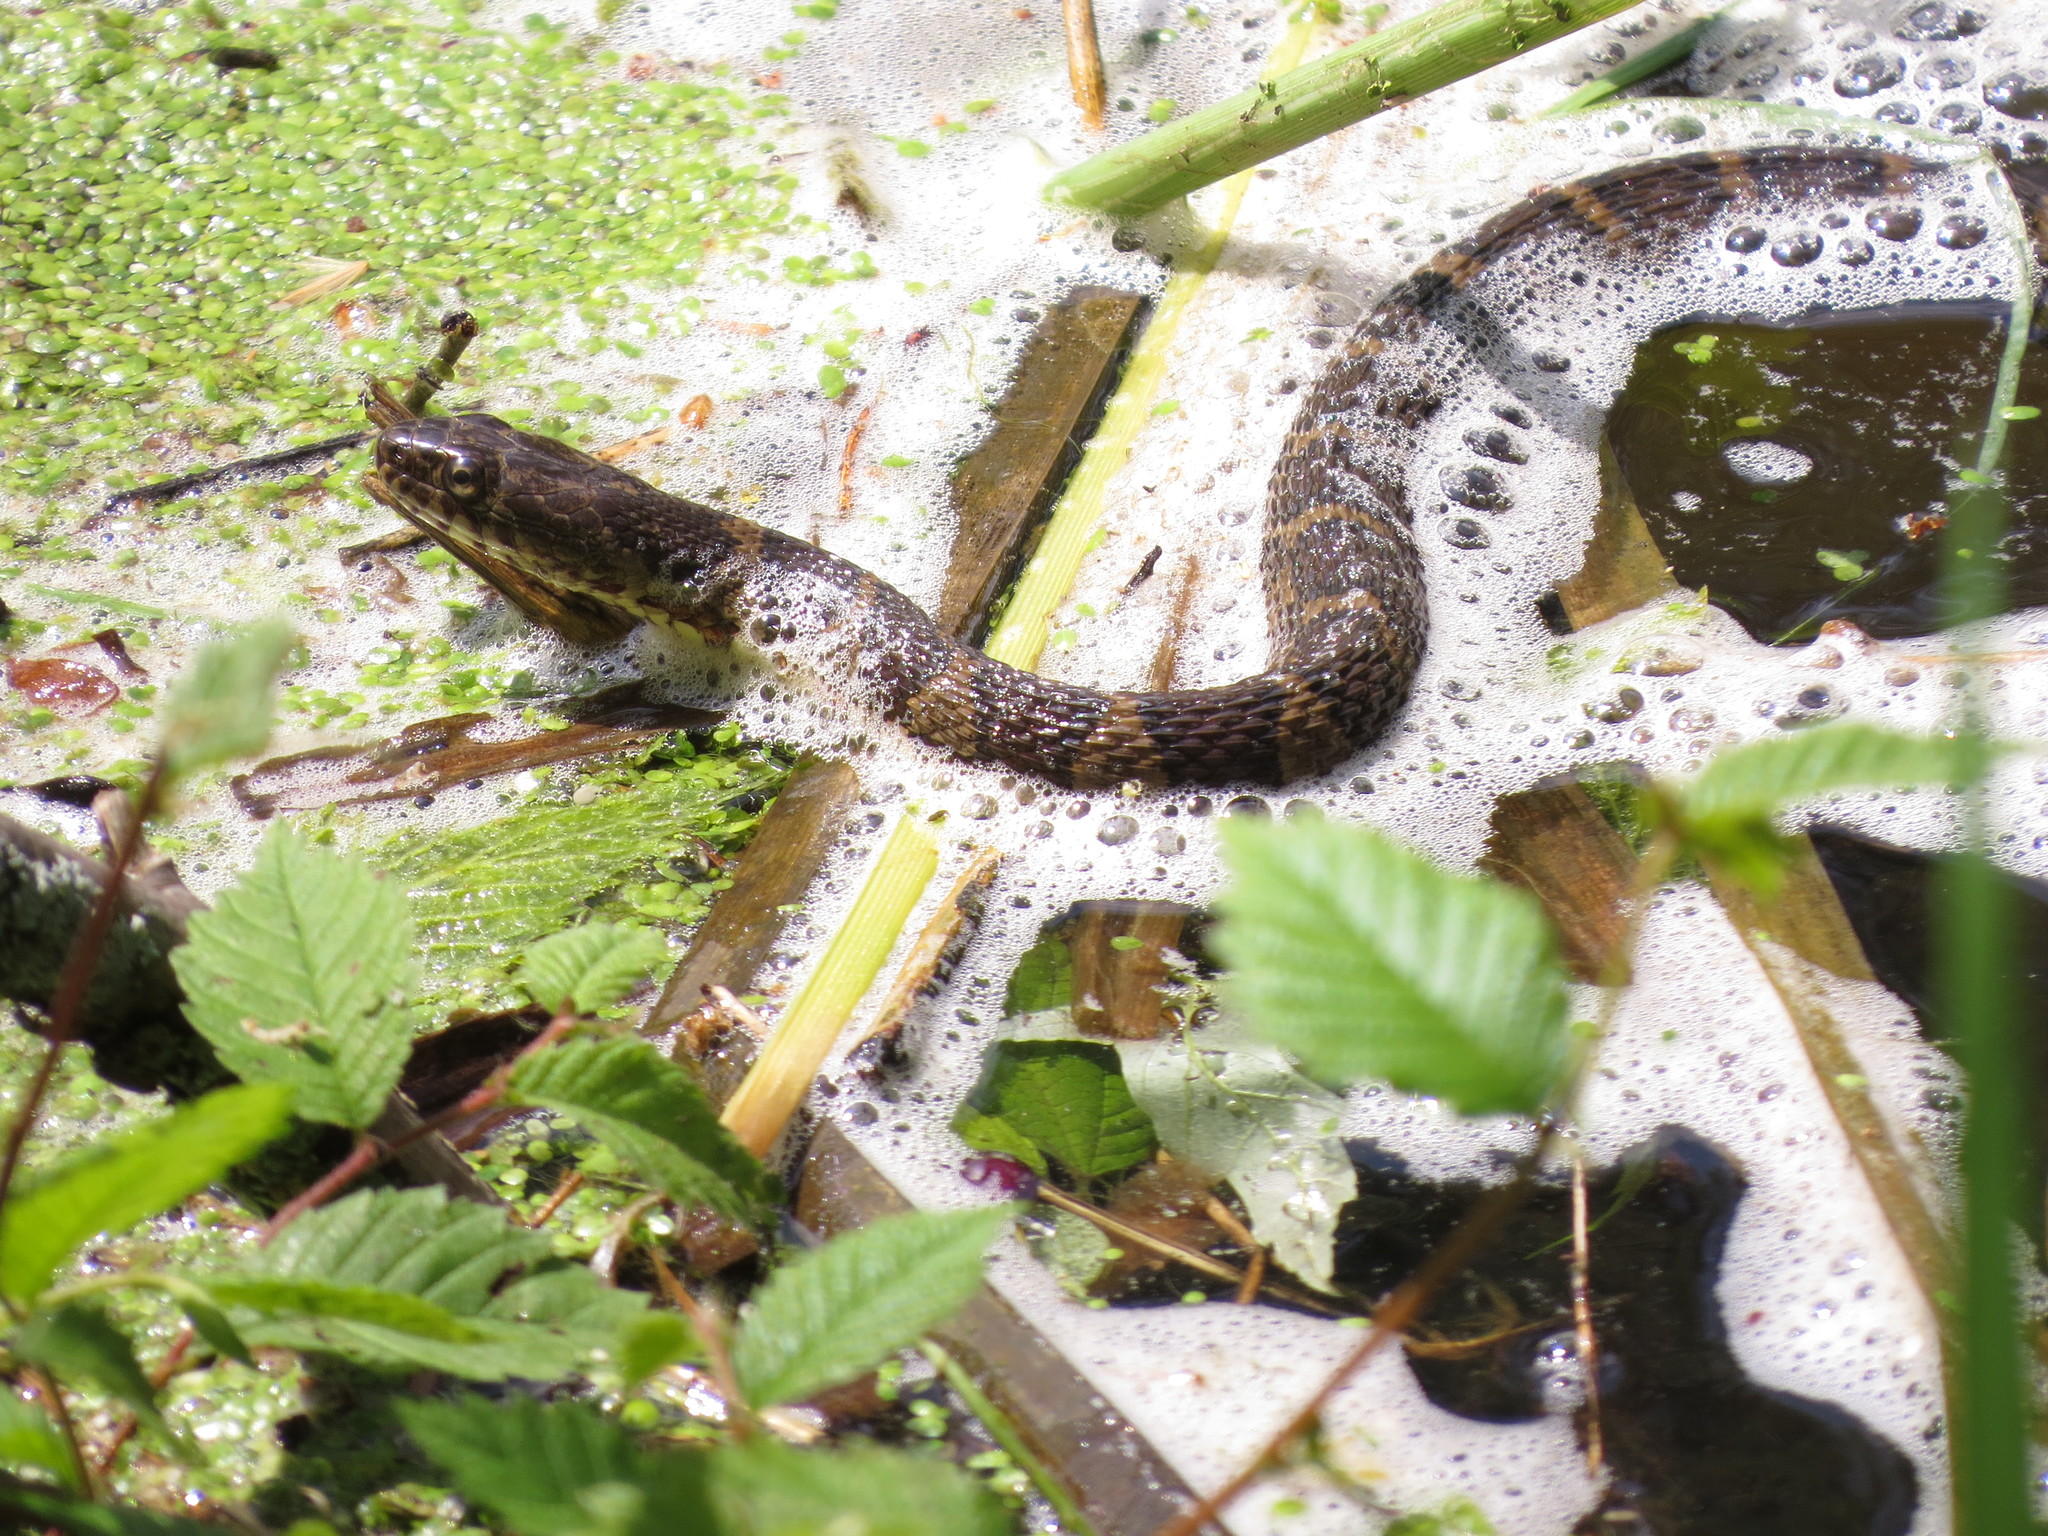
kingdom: Animalia
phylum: Chordata
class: Squamata
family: Colubridae
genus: Nerodia
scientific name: Nerodia sipedon
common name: Northern water snake
